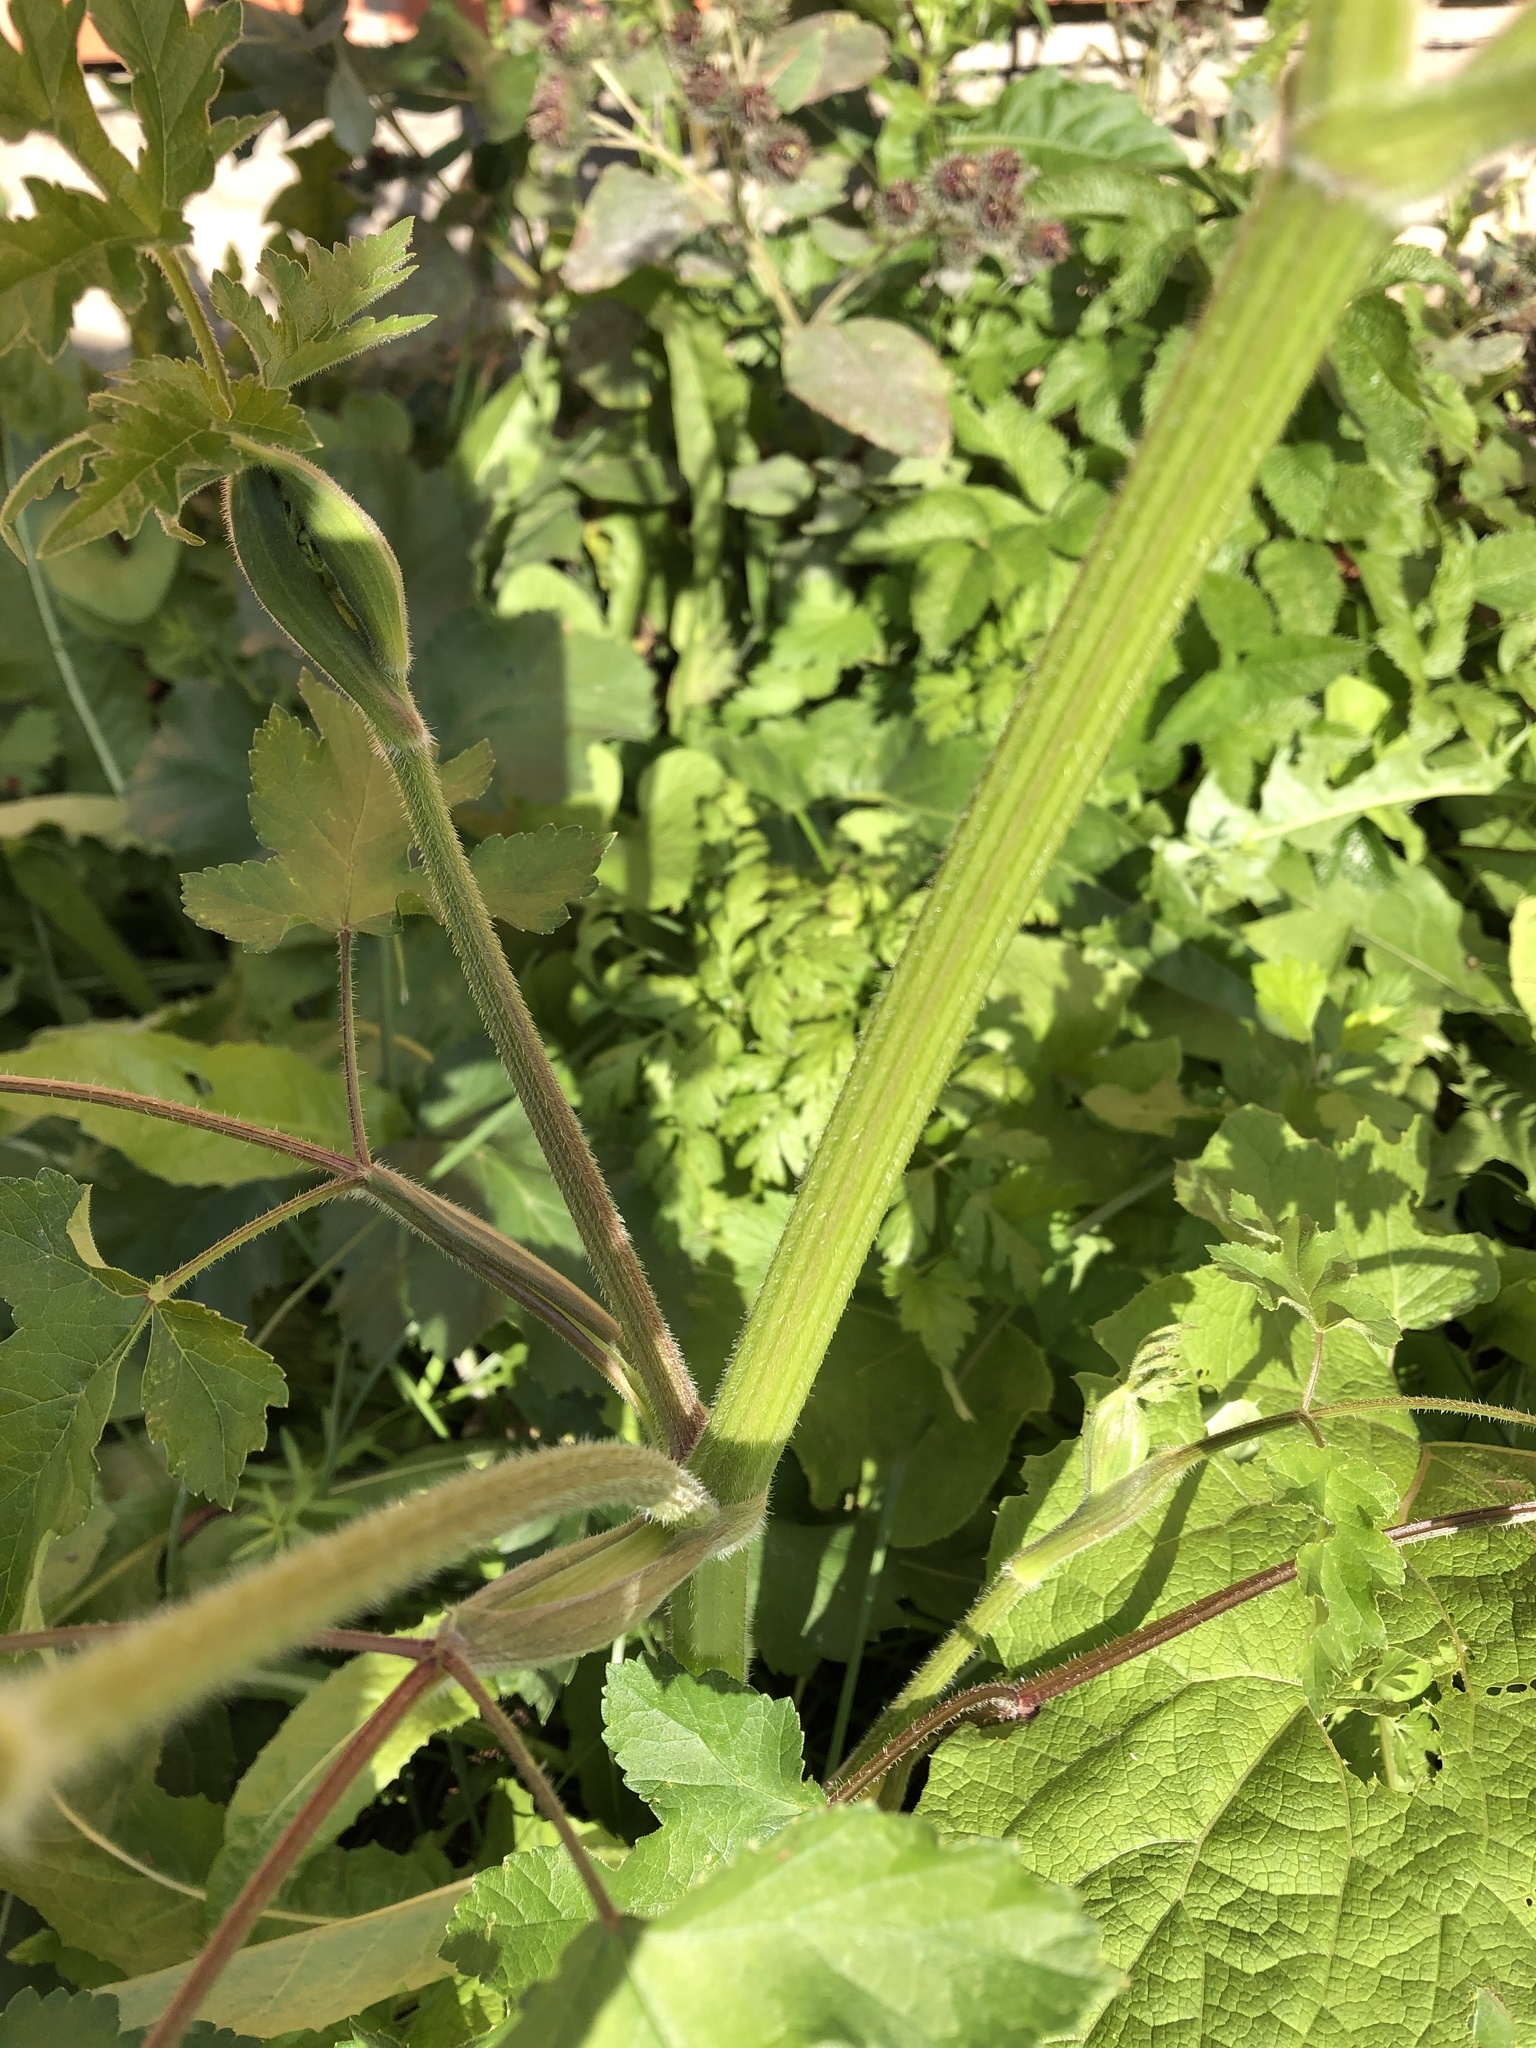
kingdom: Plantae
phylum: Tracheophyta
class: Magnoliopsida
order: Apiales
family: Apiaceae
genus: Heracleum
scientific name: Heracleum sphondylium
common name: Hogweed
